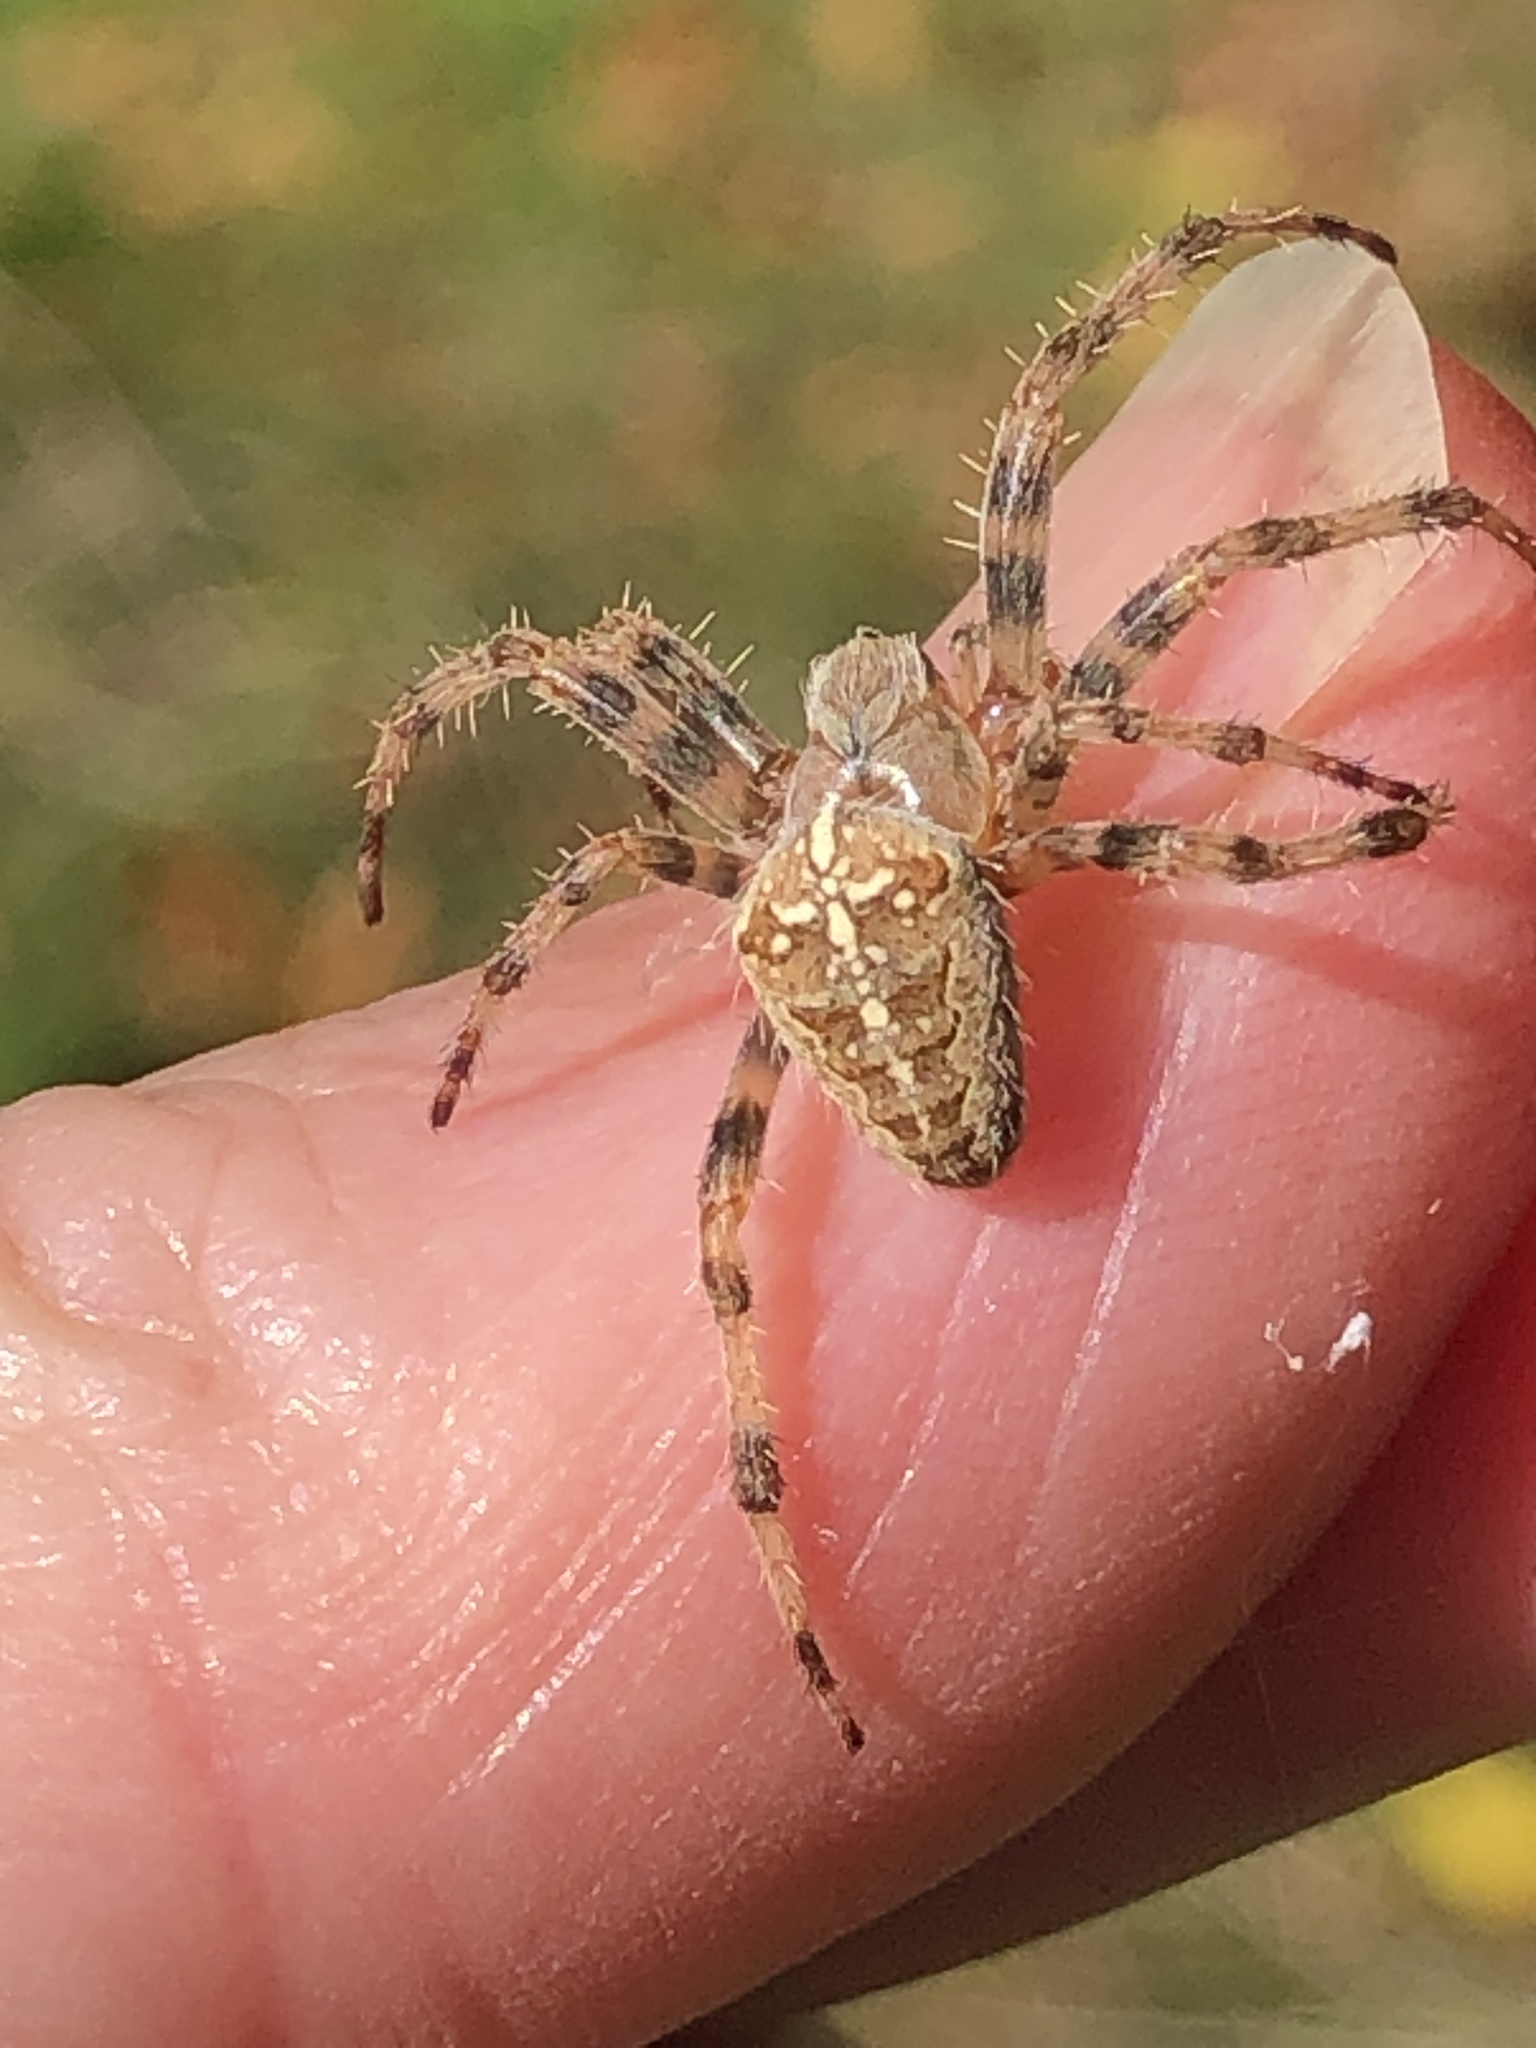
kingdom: Animalia
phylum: Arthropoda
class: Arachnida
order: Araneae
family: Araneidae
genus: Araneus
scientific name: Araneus diadematus
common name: Cross orbweaver
